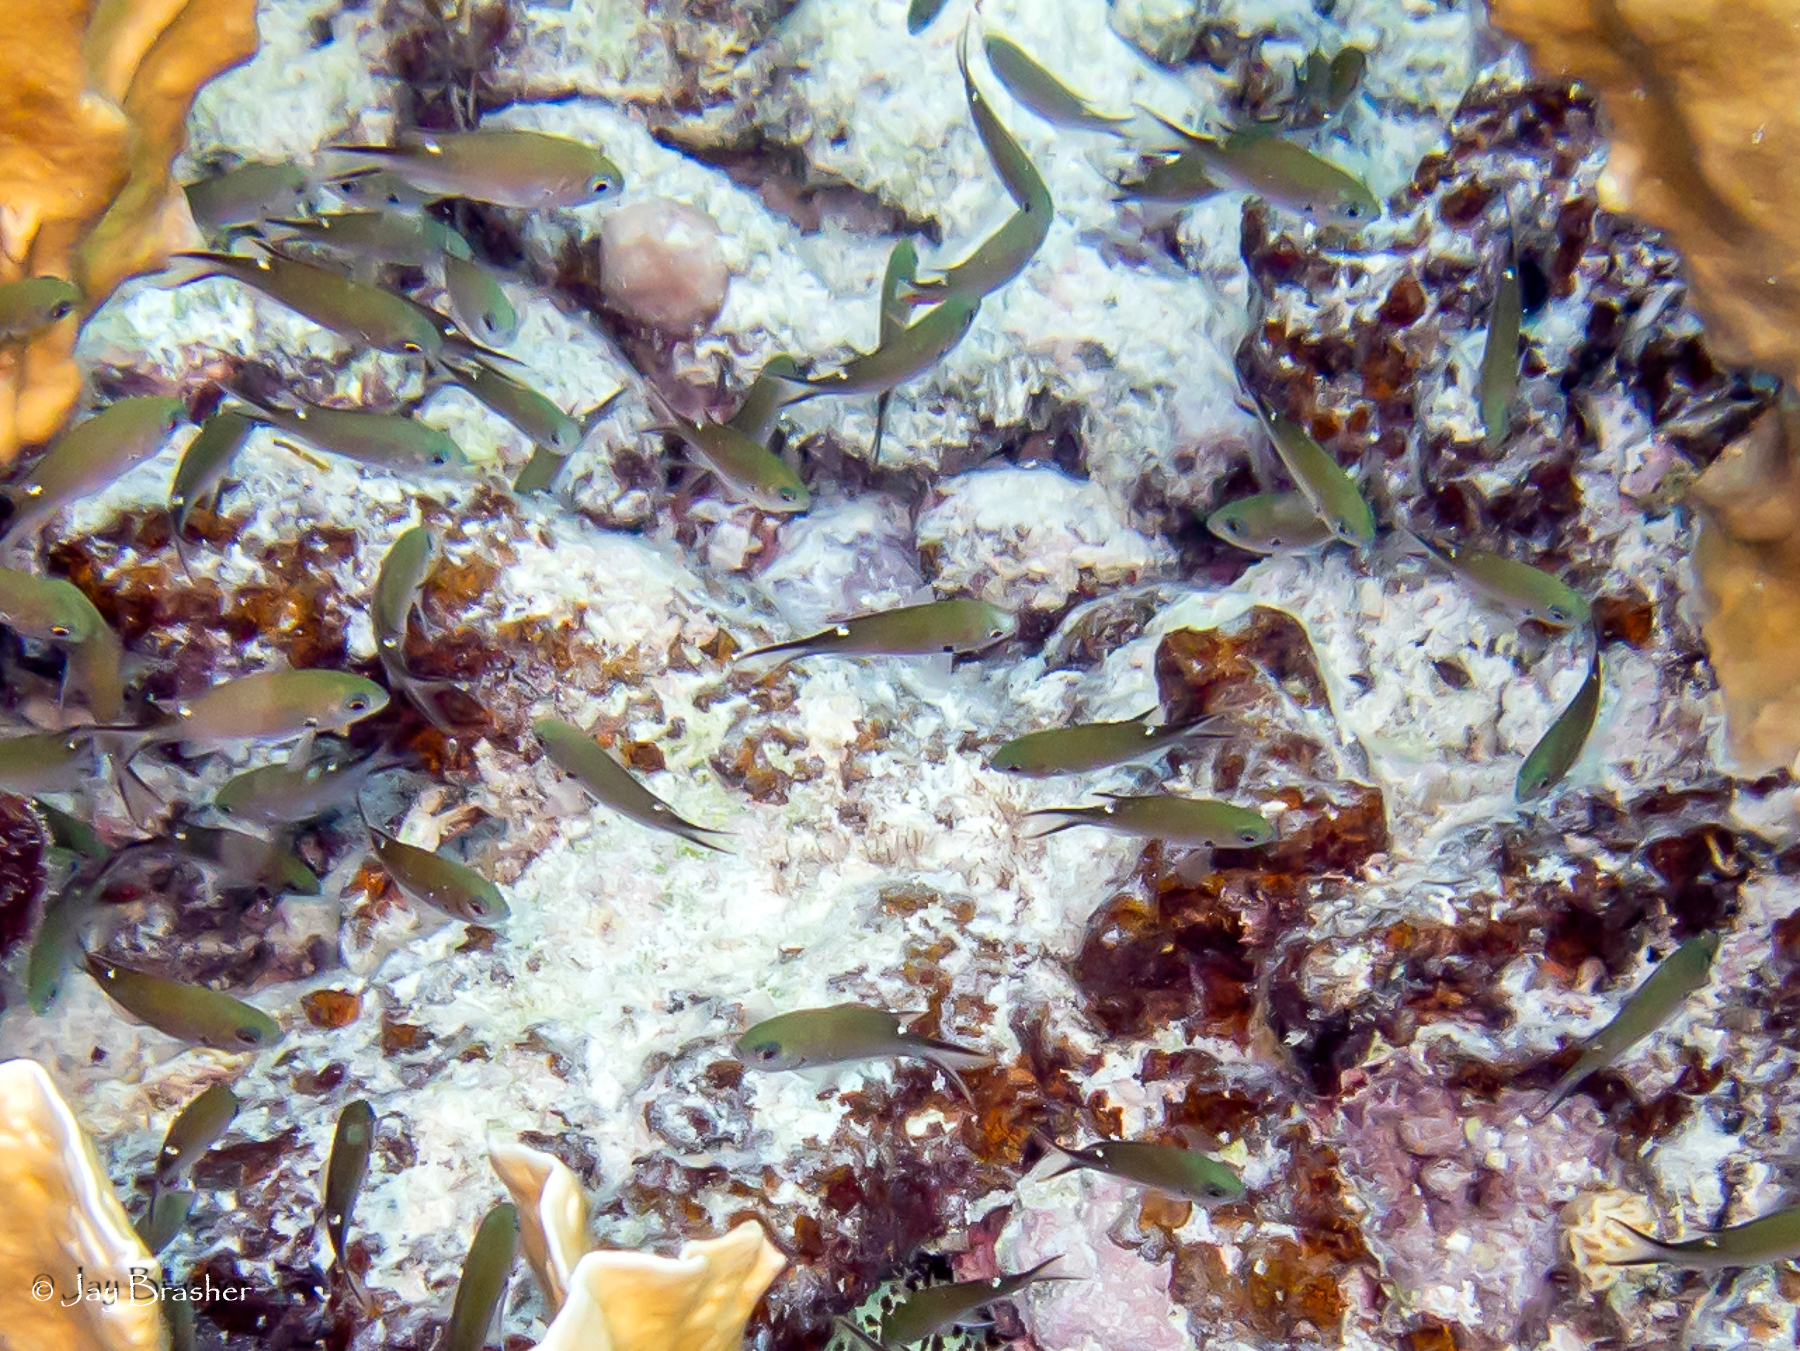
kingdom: Animalia
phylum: Chordata
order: Perciformes
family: Pomacentridae
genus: Chromis
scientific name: Chromis multilineata
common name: Brown chromis
